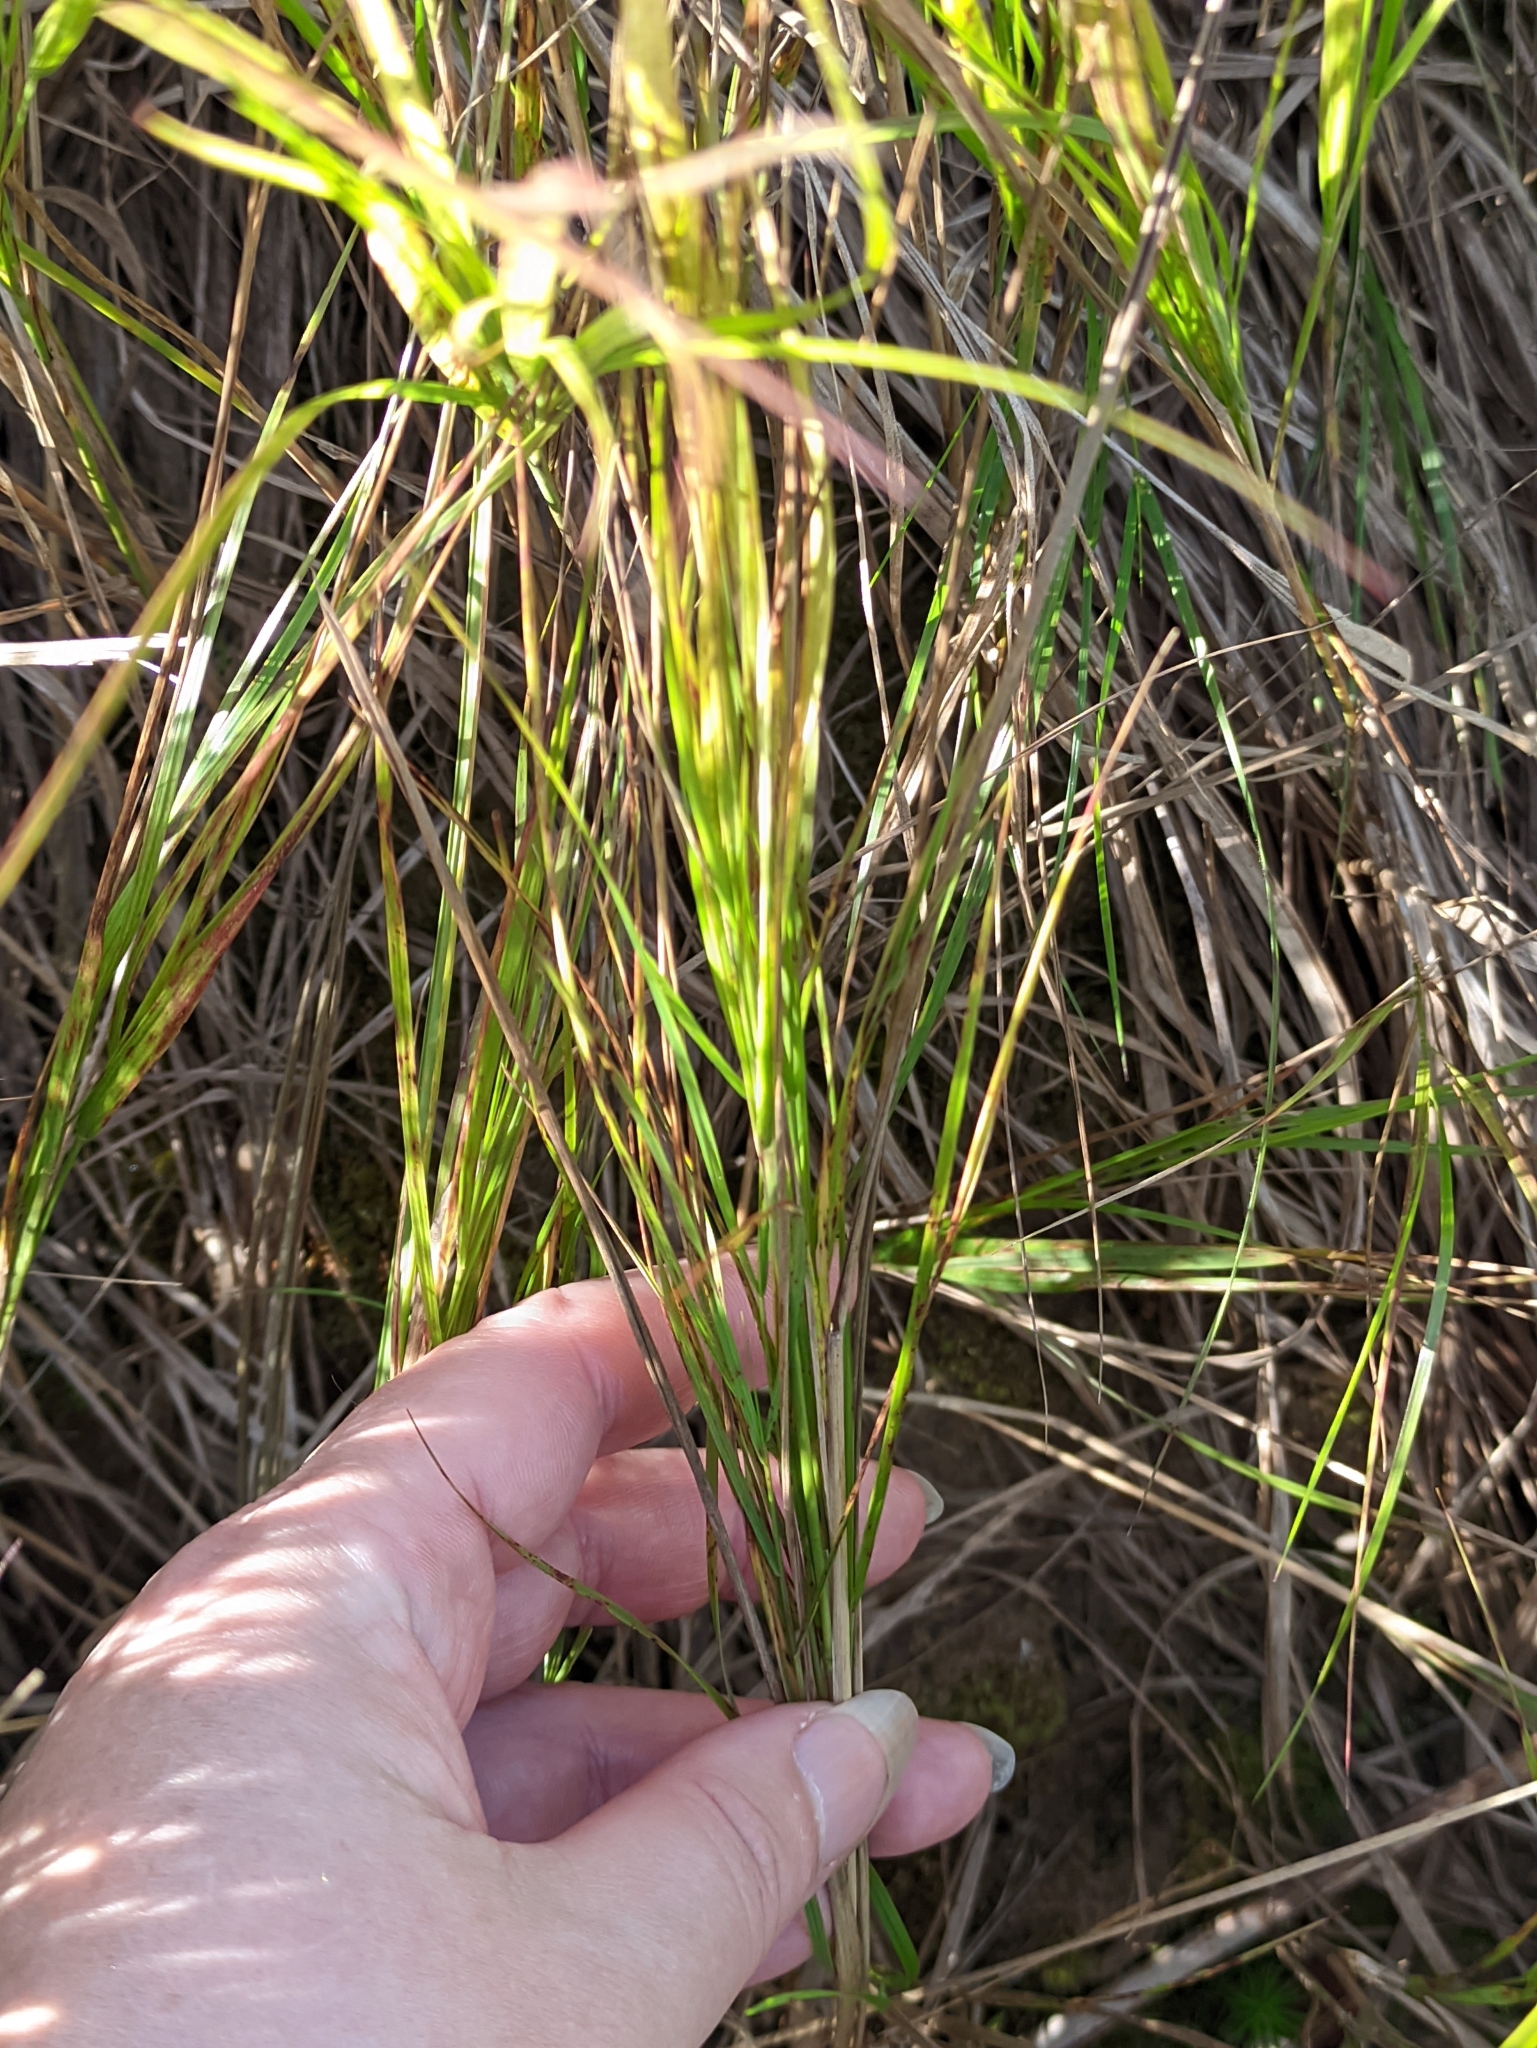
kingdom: Plantae
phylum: Tracheophyta
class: Liliopsida
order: Poales
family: Poaceae
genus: Calamagrostis
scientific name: Calamagrostis canescens
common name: Purple small-reed
